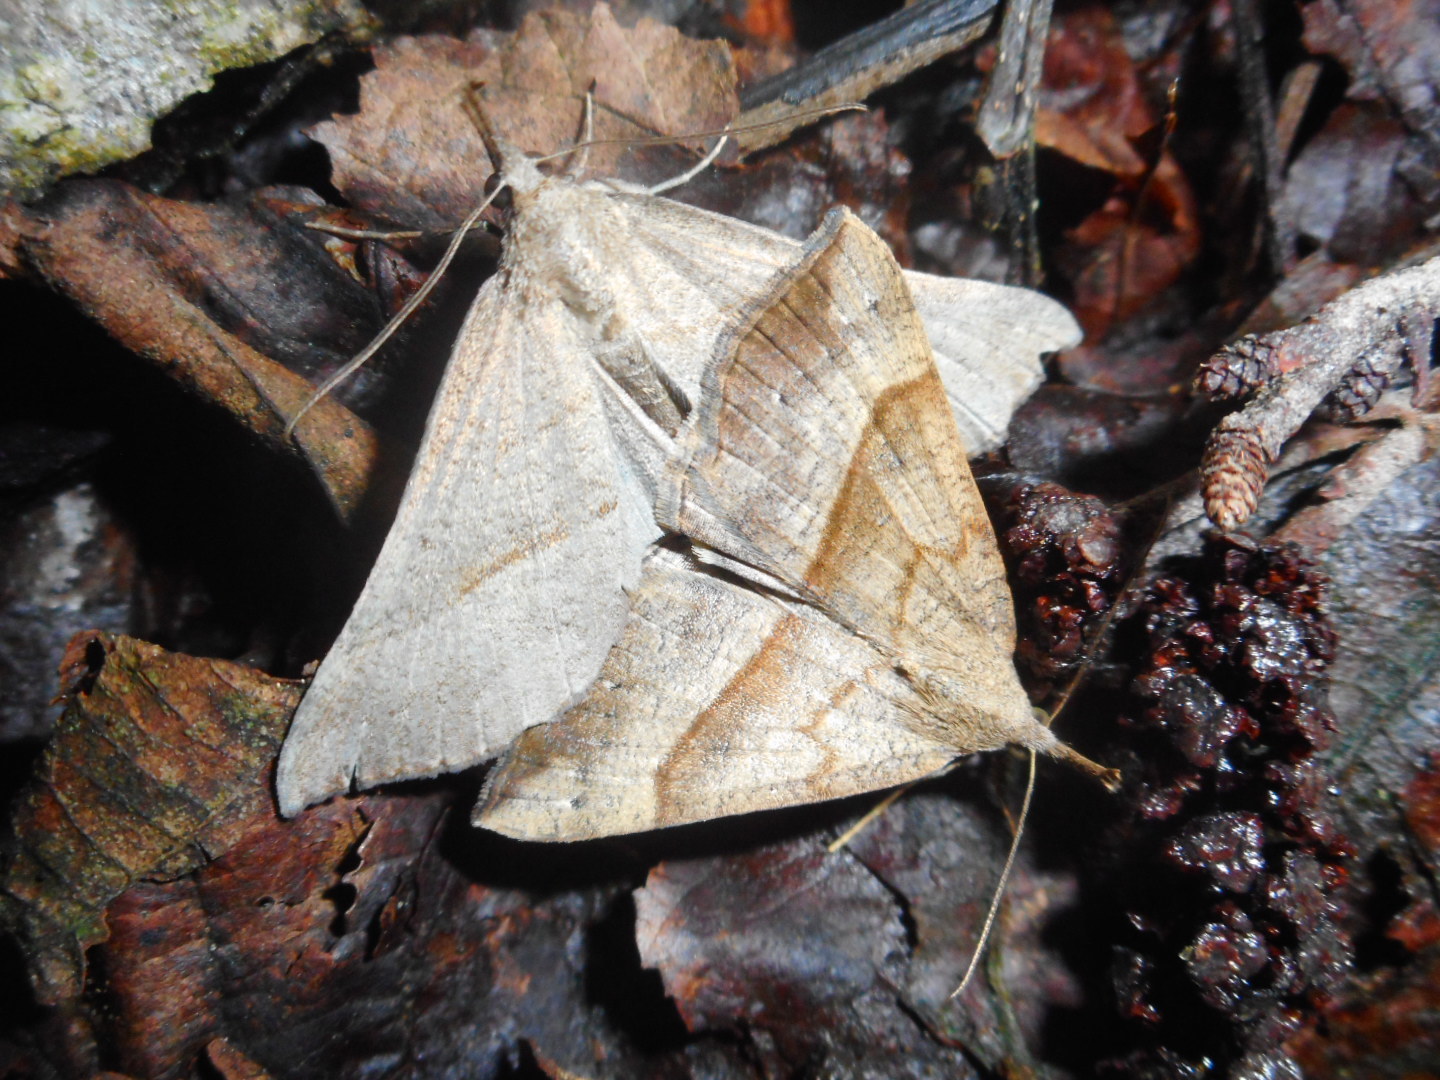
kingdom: Animalia
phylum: Arthropoda
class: Insecta
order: Lepidoptera
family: Erebidae
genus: Hypena
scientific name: Hypena proboscidalis
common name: Snout
